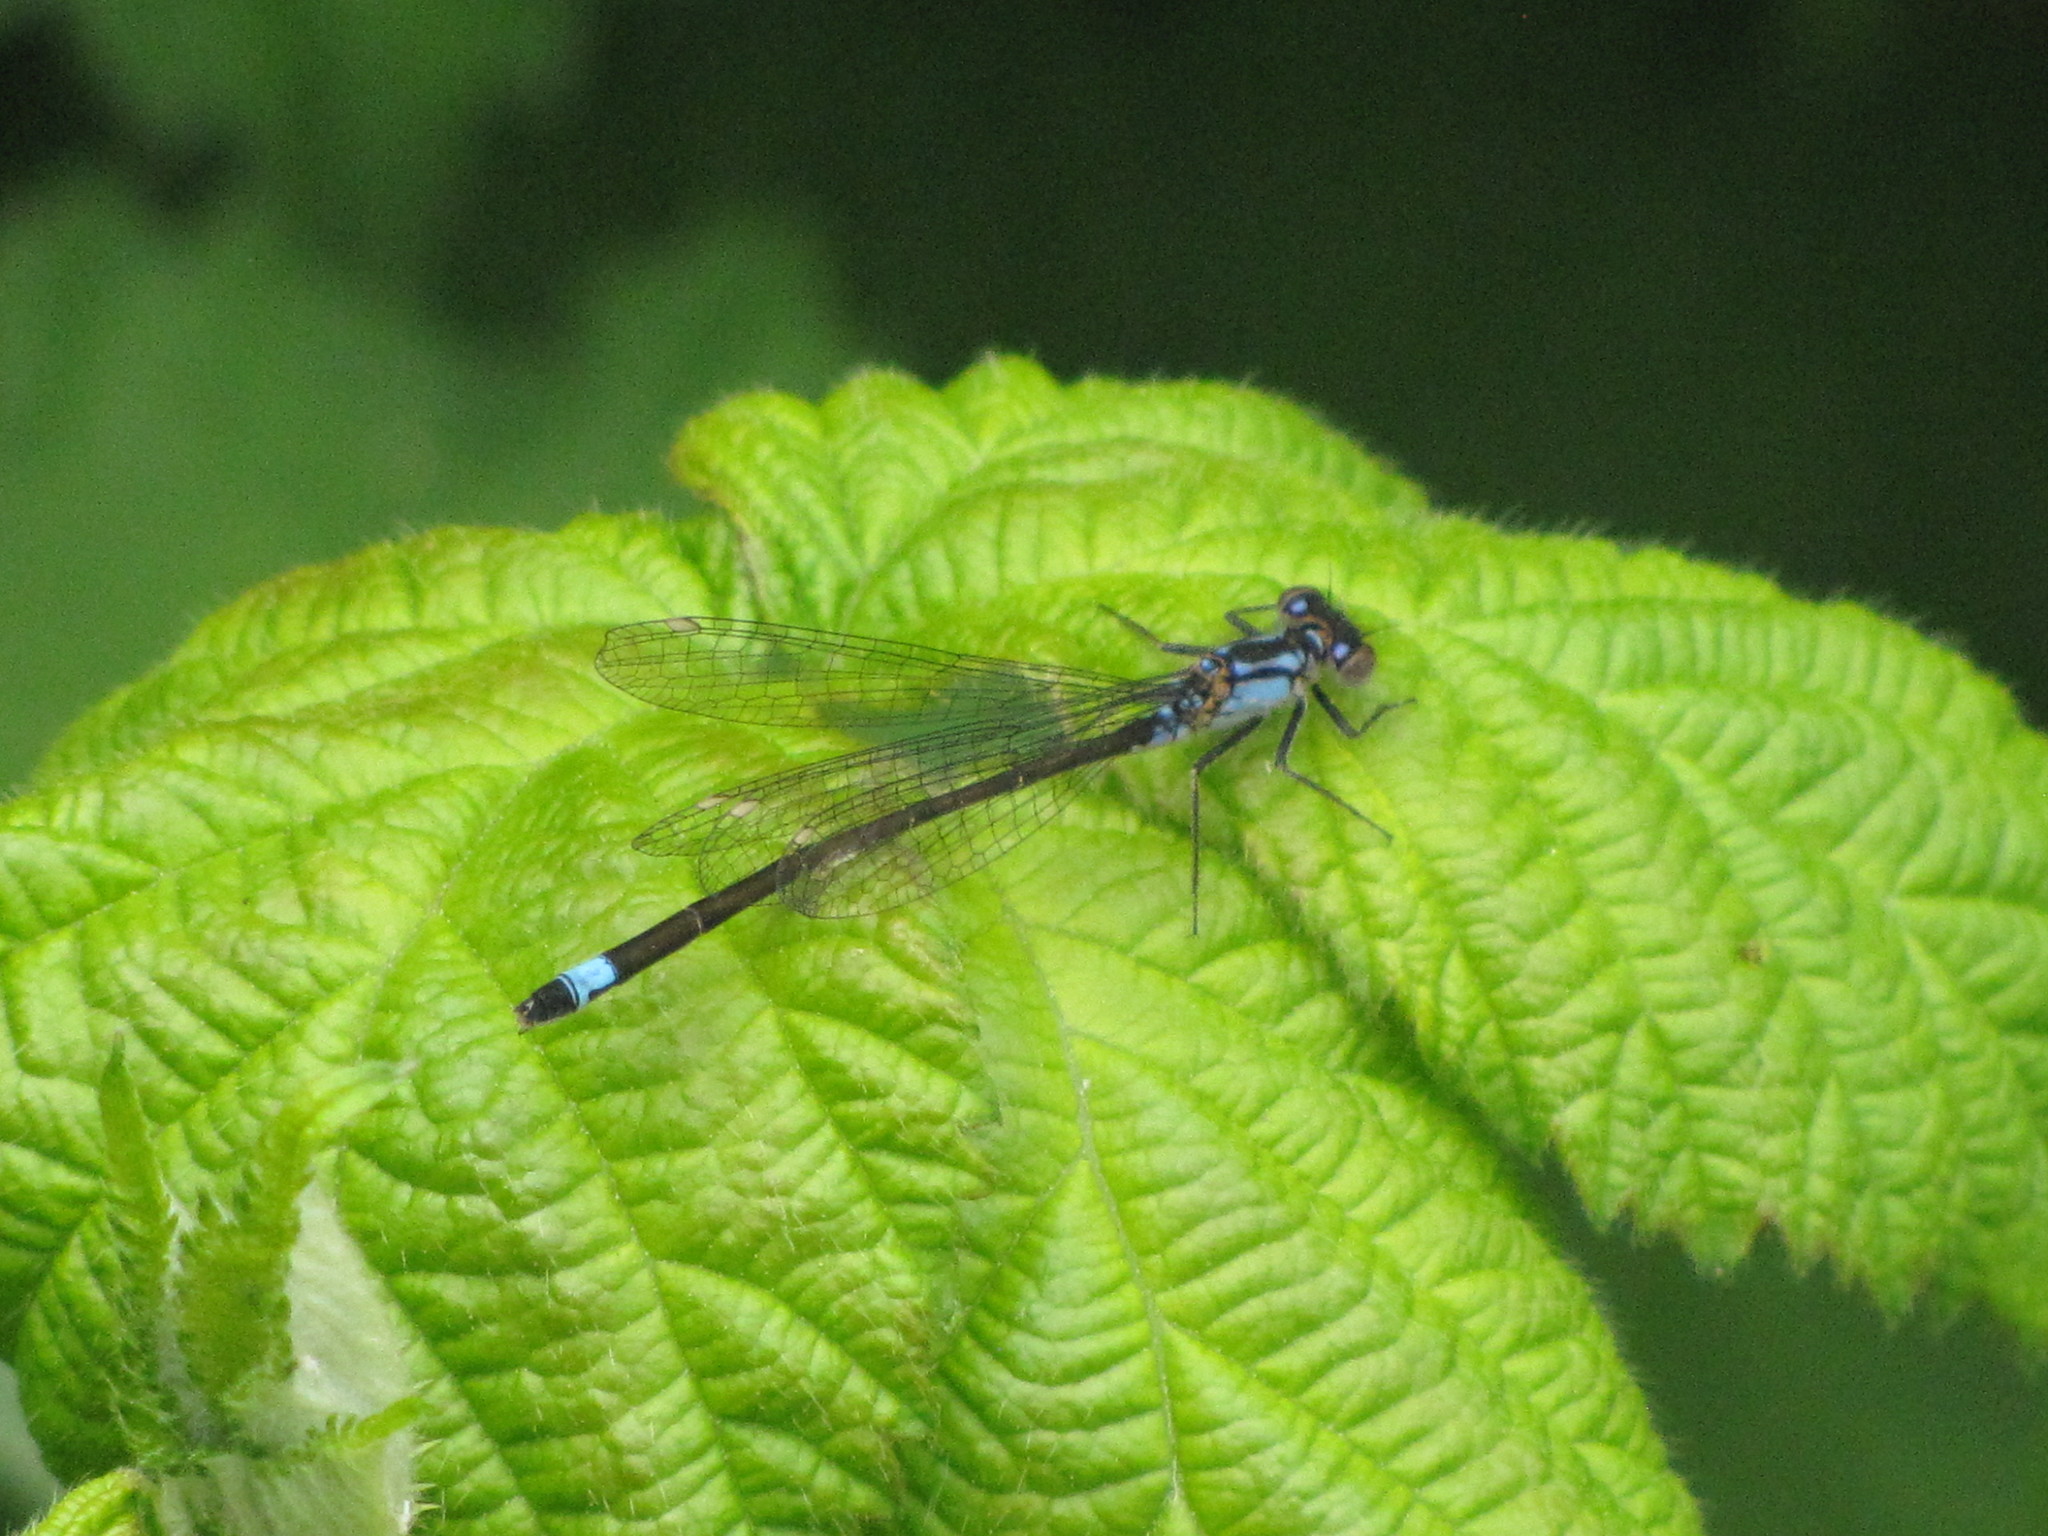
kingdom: Animalia
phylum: Arthropoda
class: Insecta
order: Odonata
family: Coenagrionidae
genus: Ischnura
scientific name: Ischnura cervula
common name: Pacific forktail
